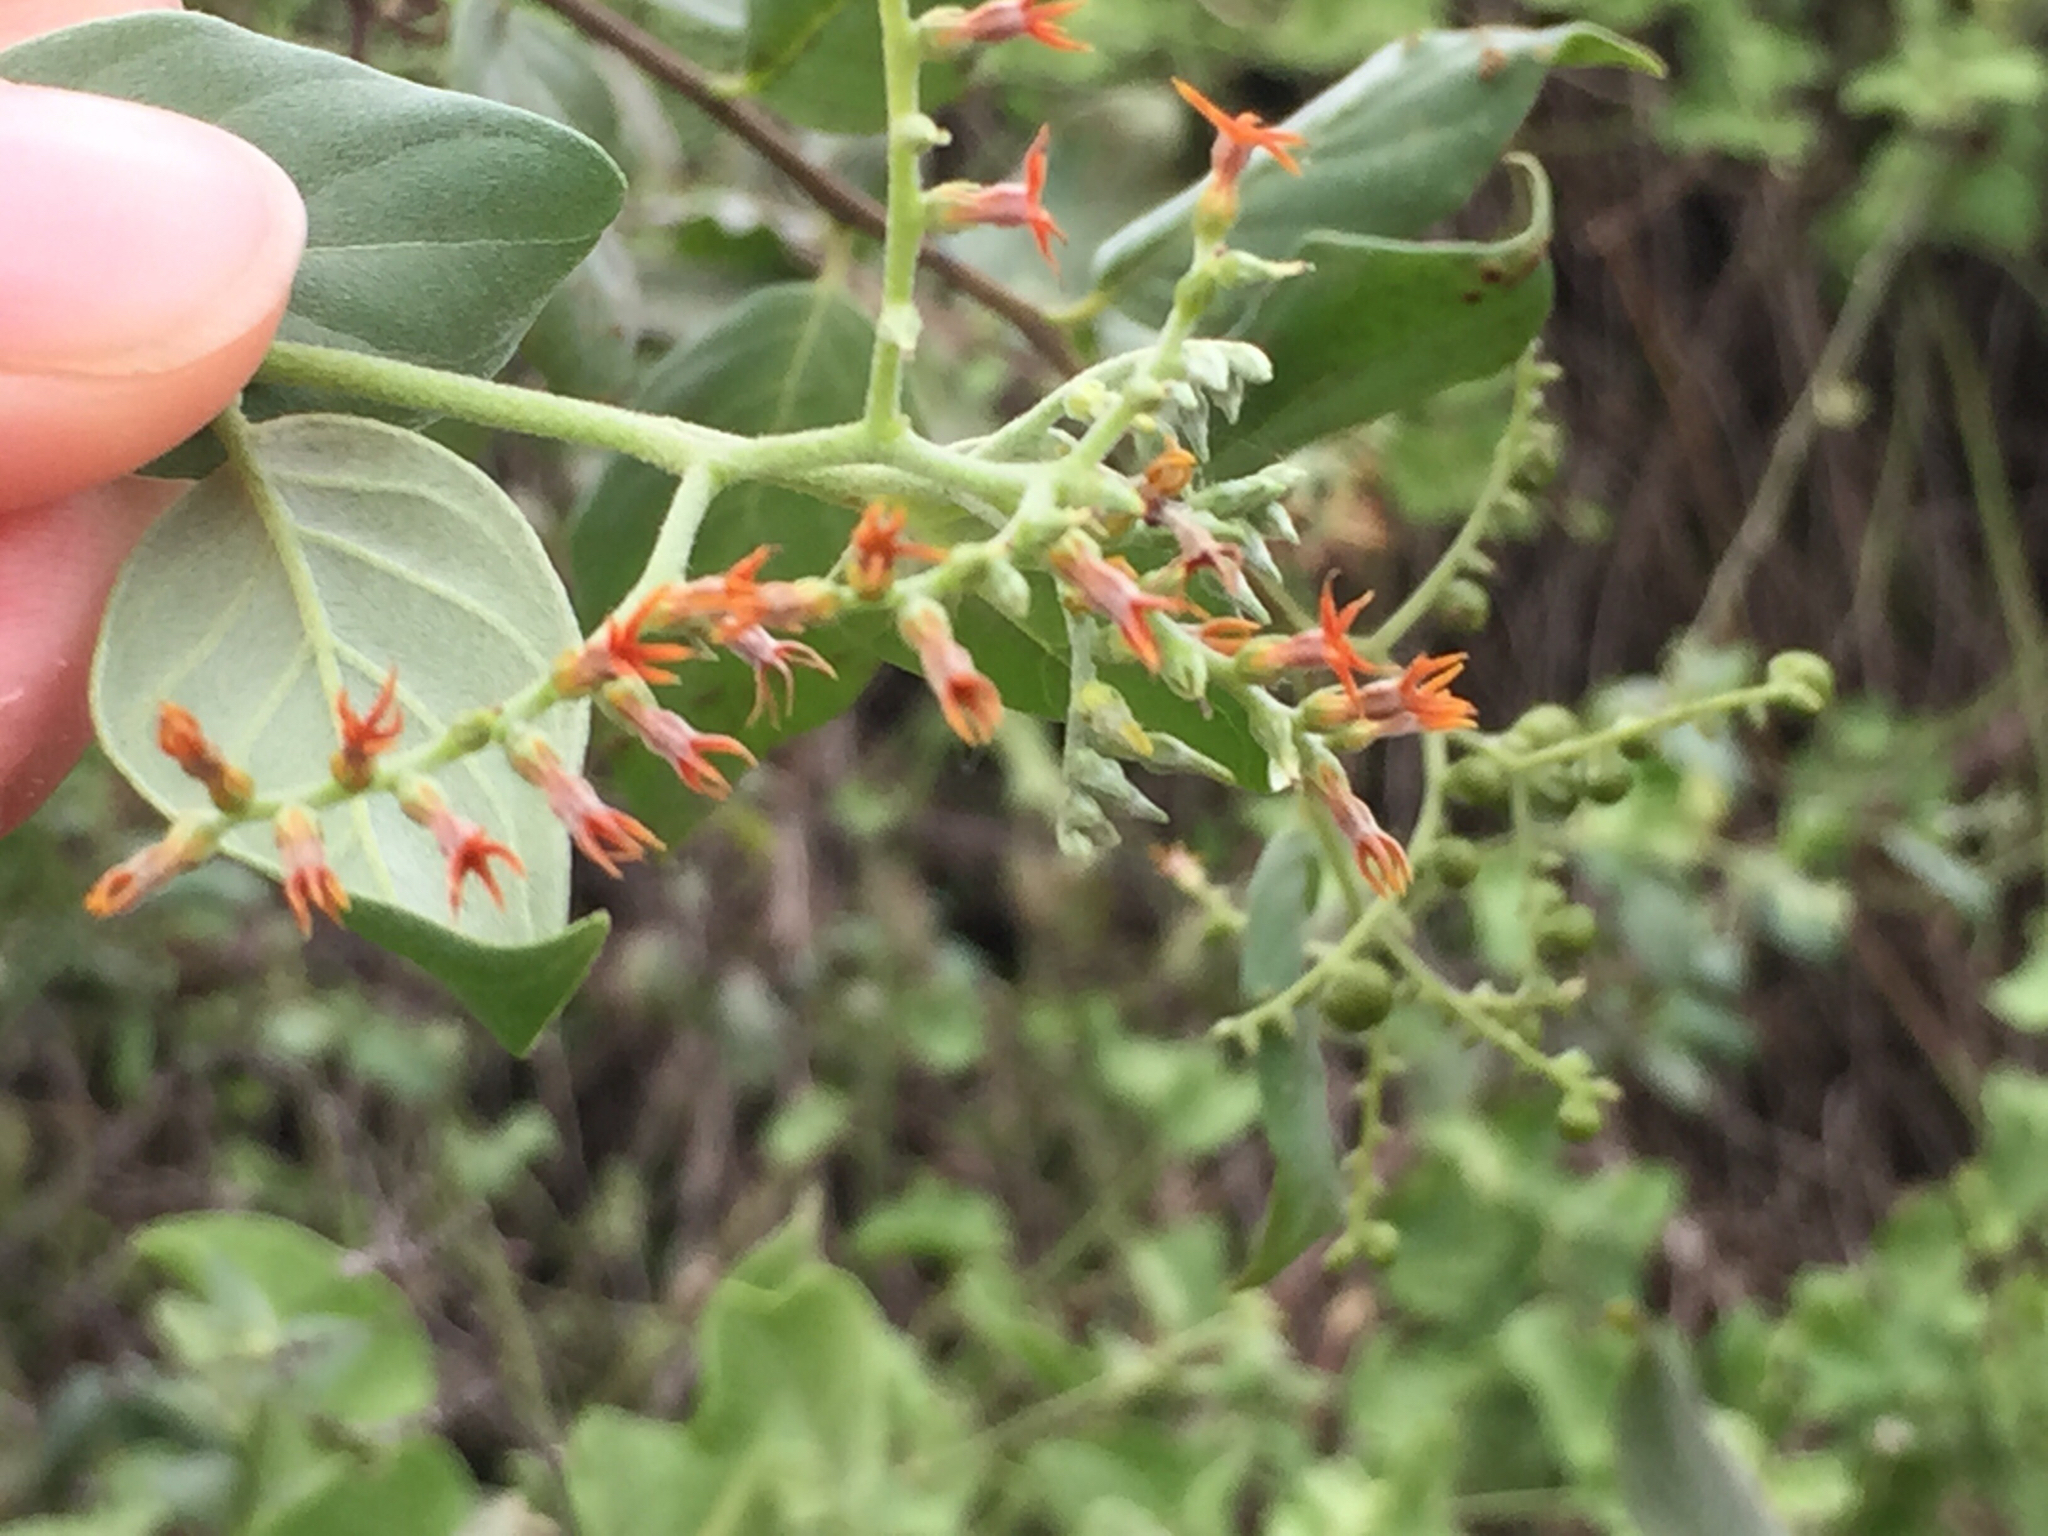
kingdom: Plantae
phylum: Tracheophyta
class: Magnoliopsida
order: Boraginales
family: Heliotropiaceae
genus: Myriopus
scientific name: Myriopus psilostachya
